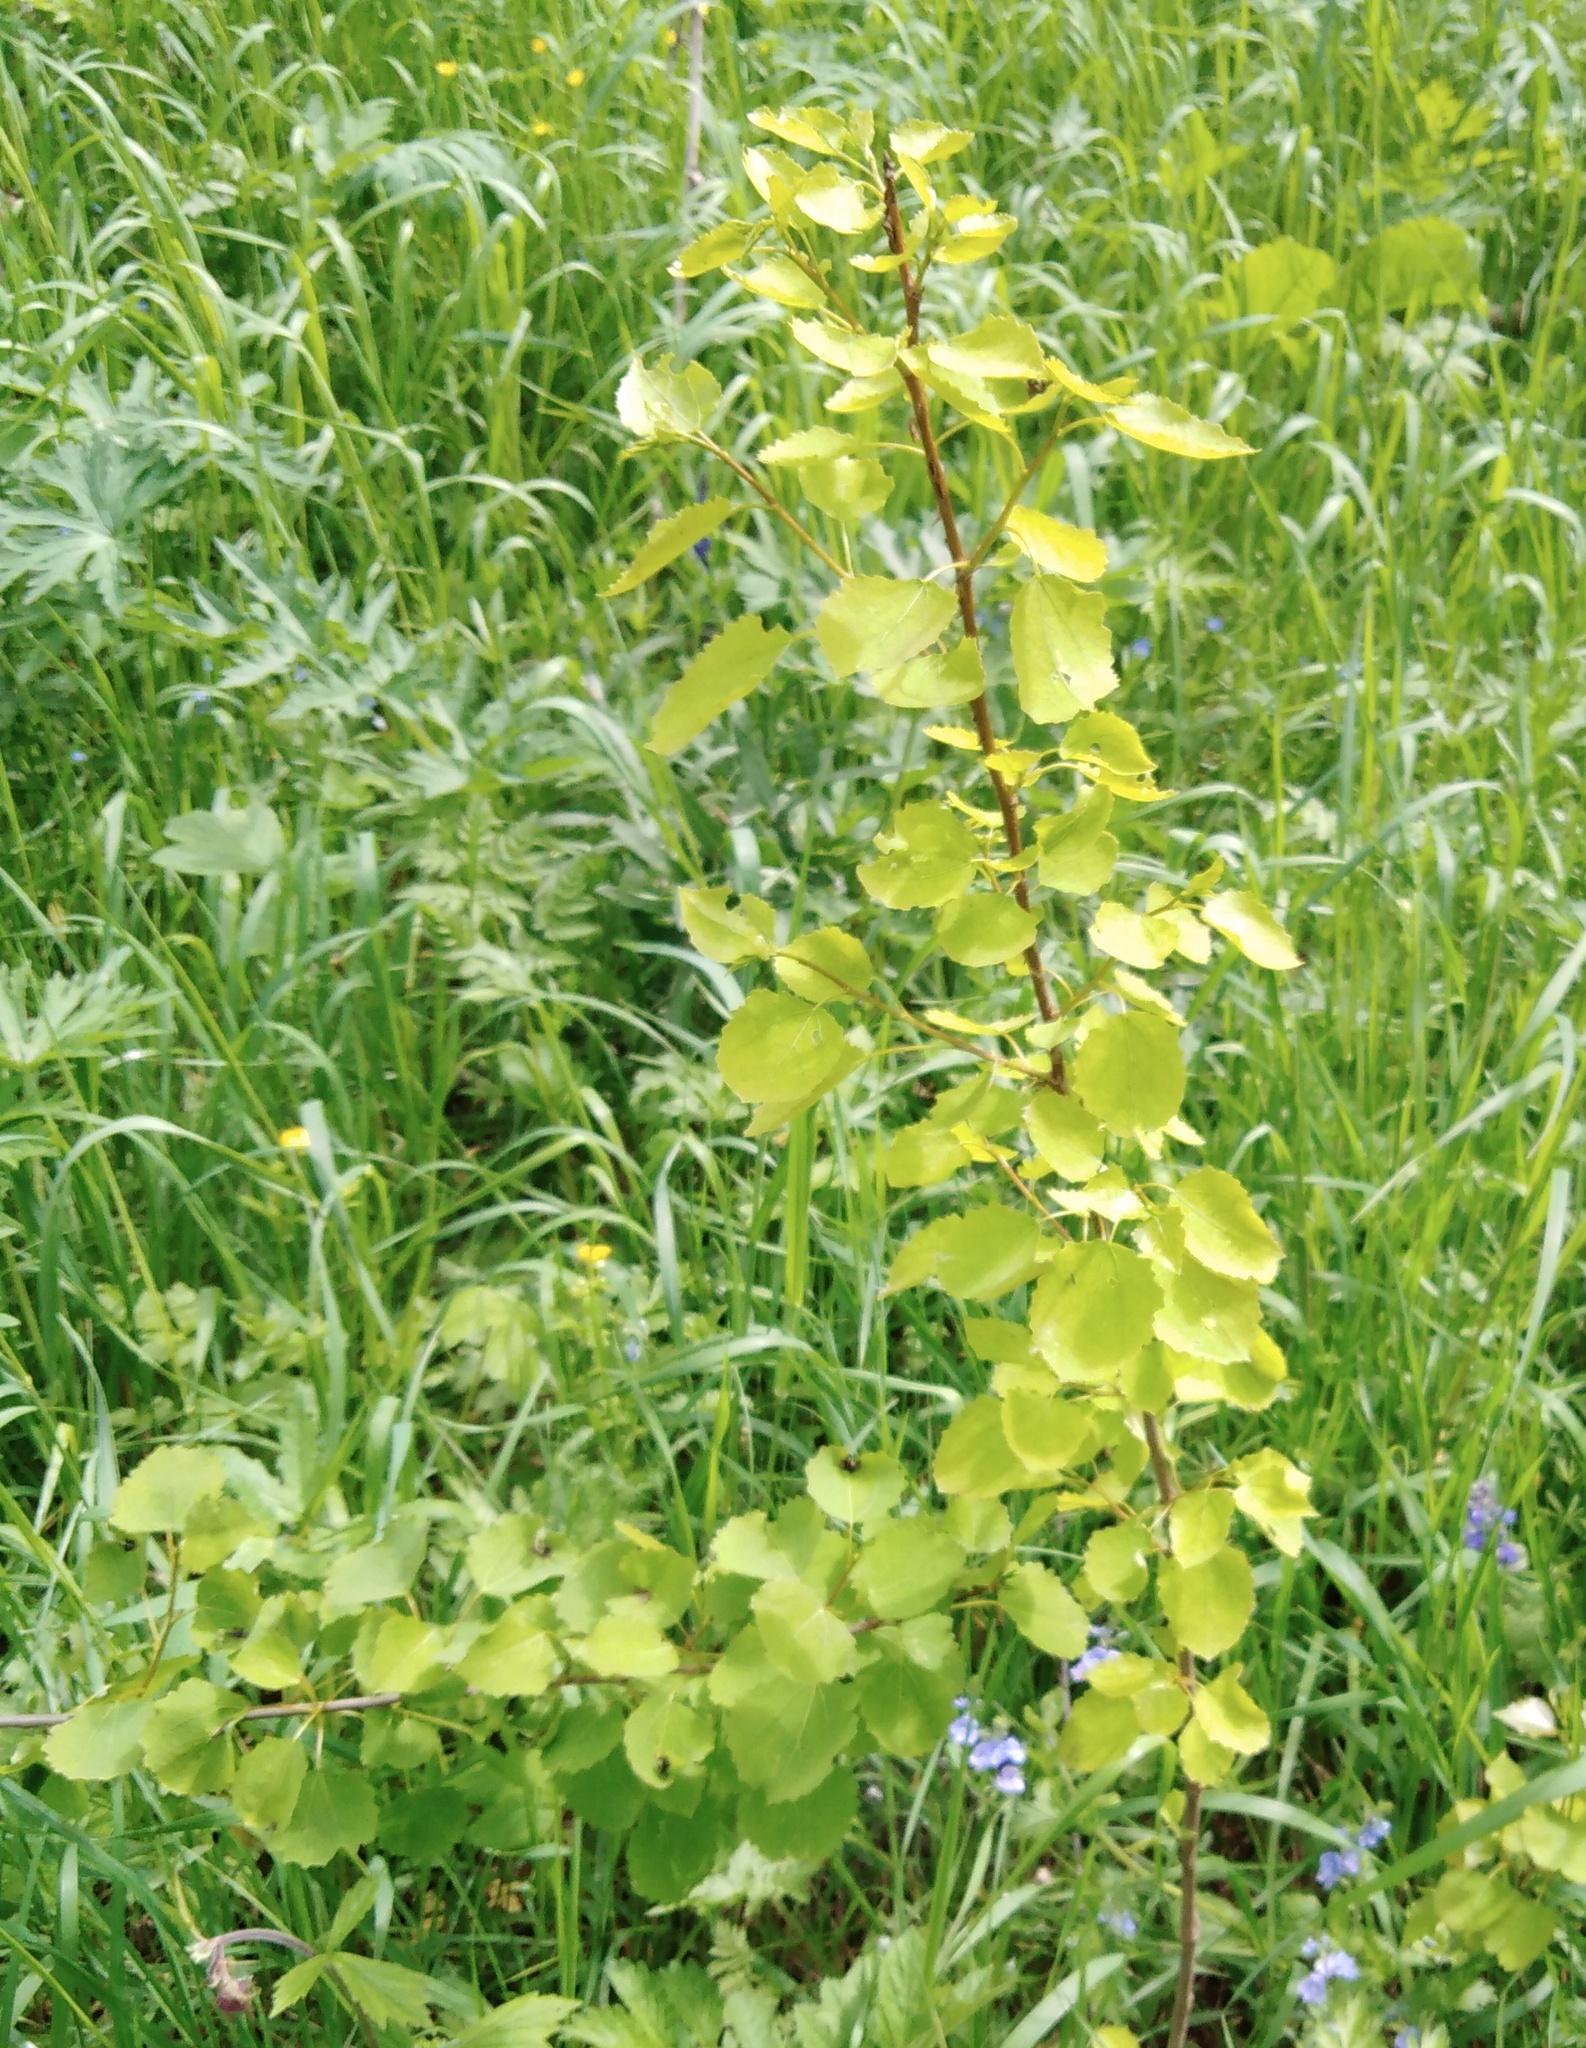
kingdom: Plantae
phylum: Tracheophyta
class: Magnoliopsida
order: Malpighiales
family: Salicaceae
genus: Populus
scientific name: Populus tremula
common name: European aspen
